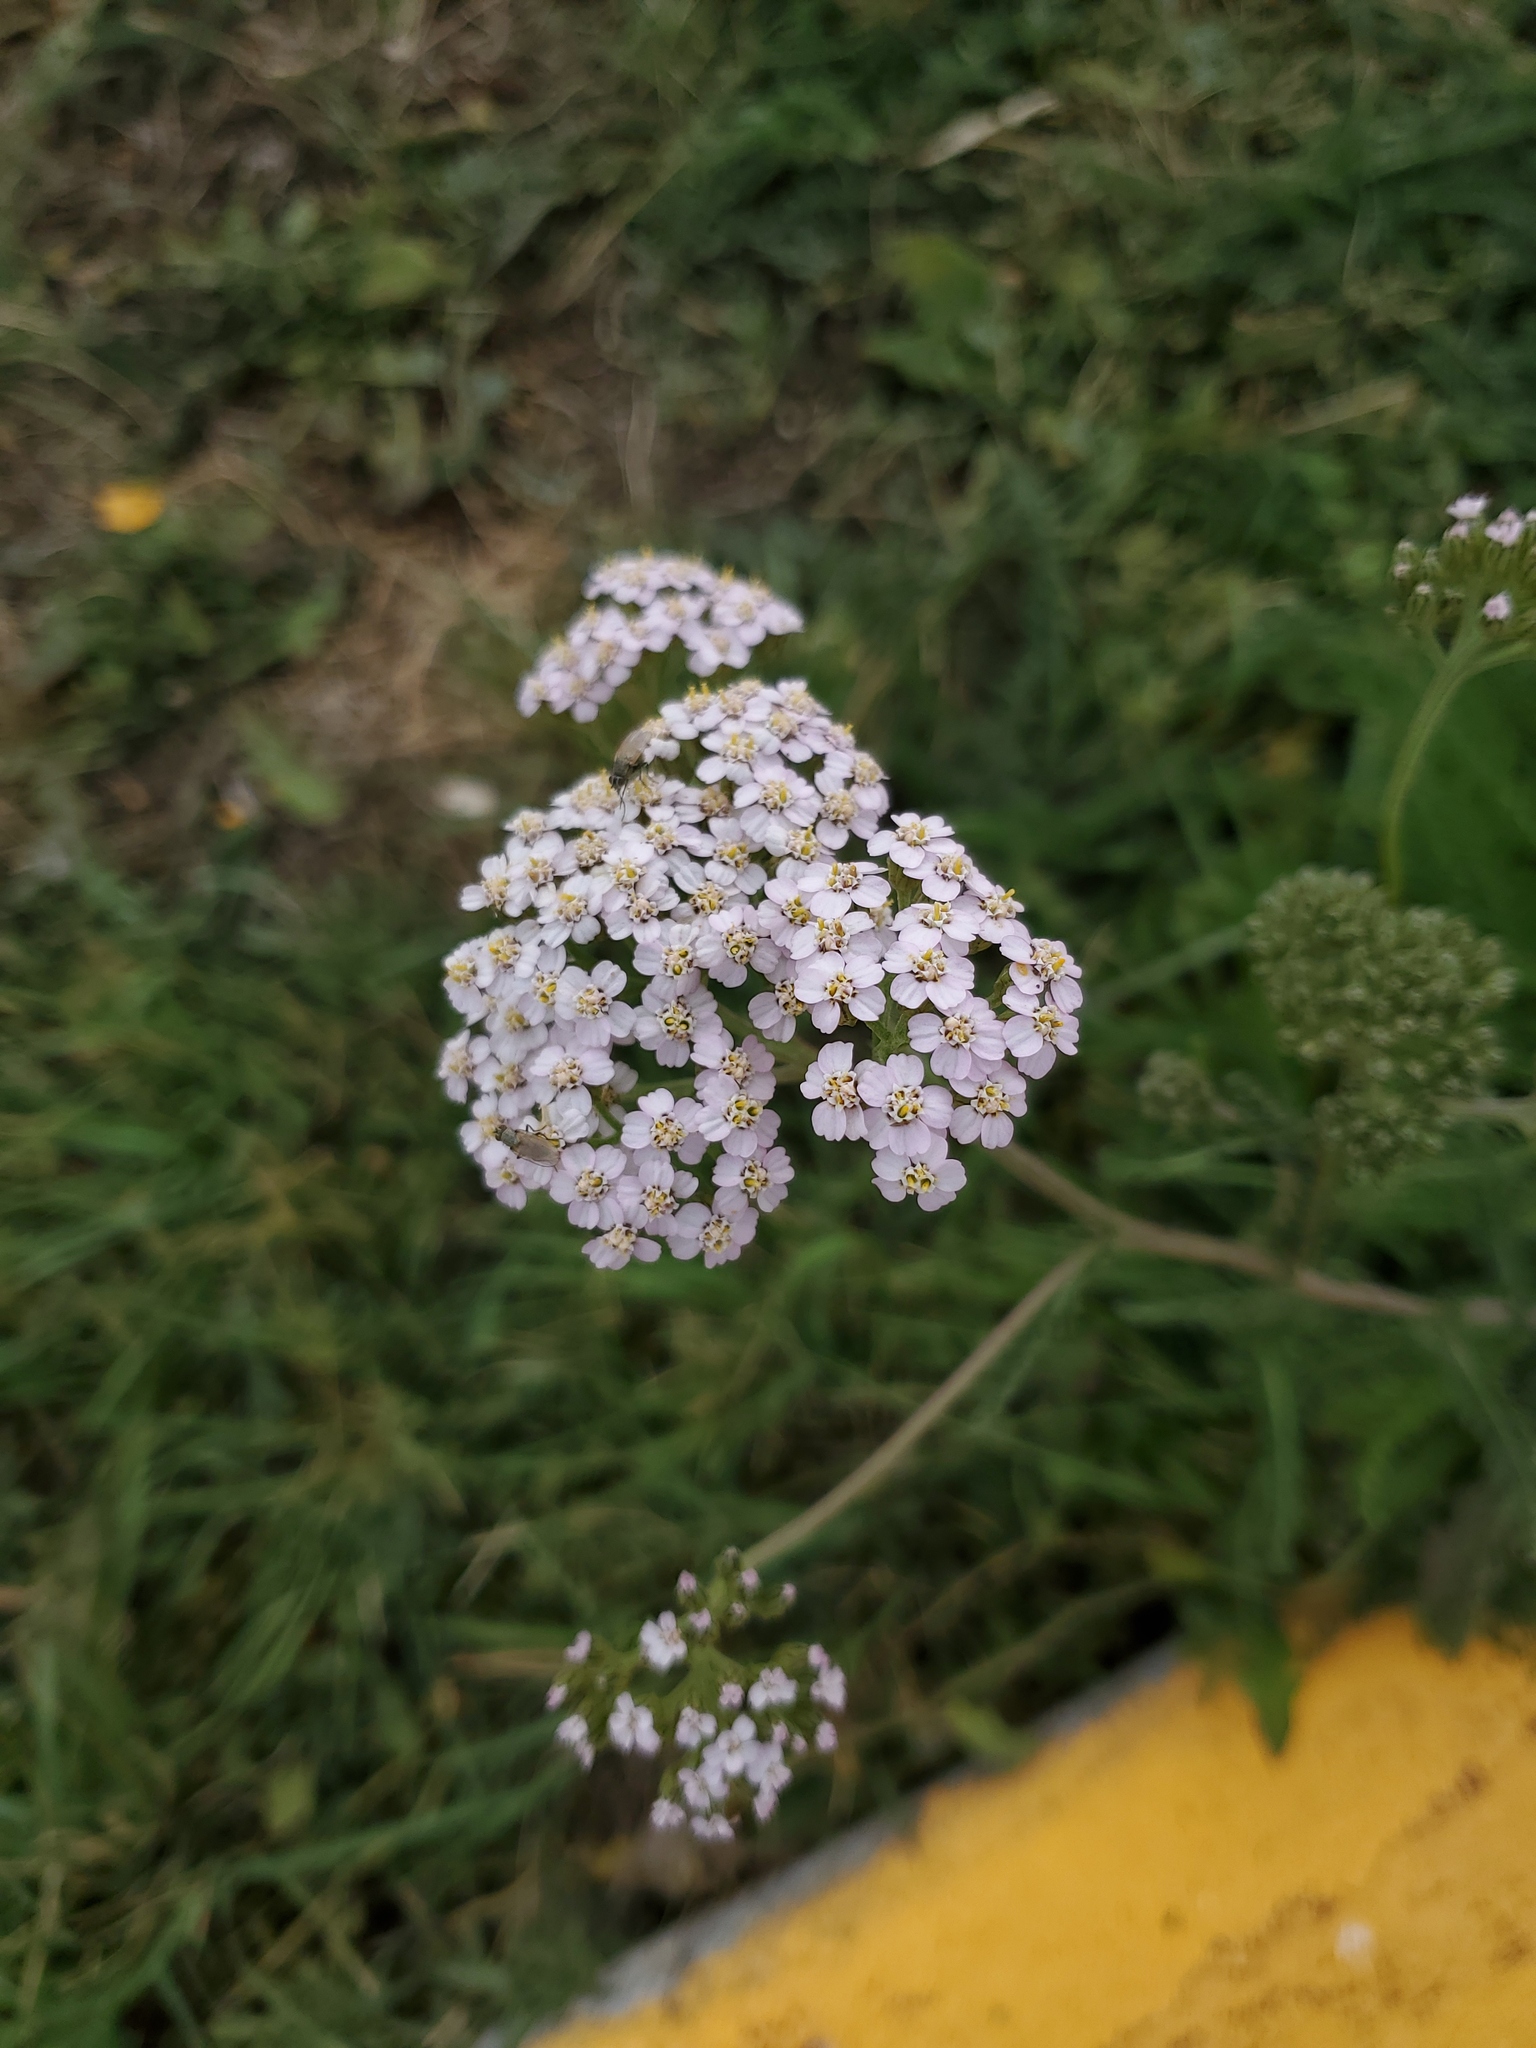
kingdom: Plantae
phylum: Tracheophyta
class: Magnoliopsida
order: Asterales
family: Asteraceae
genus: Achillea
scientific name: Achillea millefolium
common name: Yarrow
